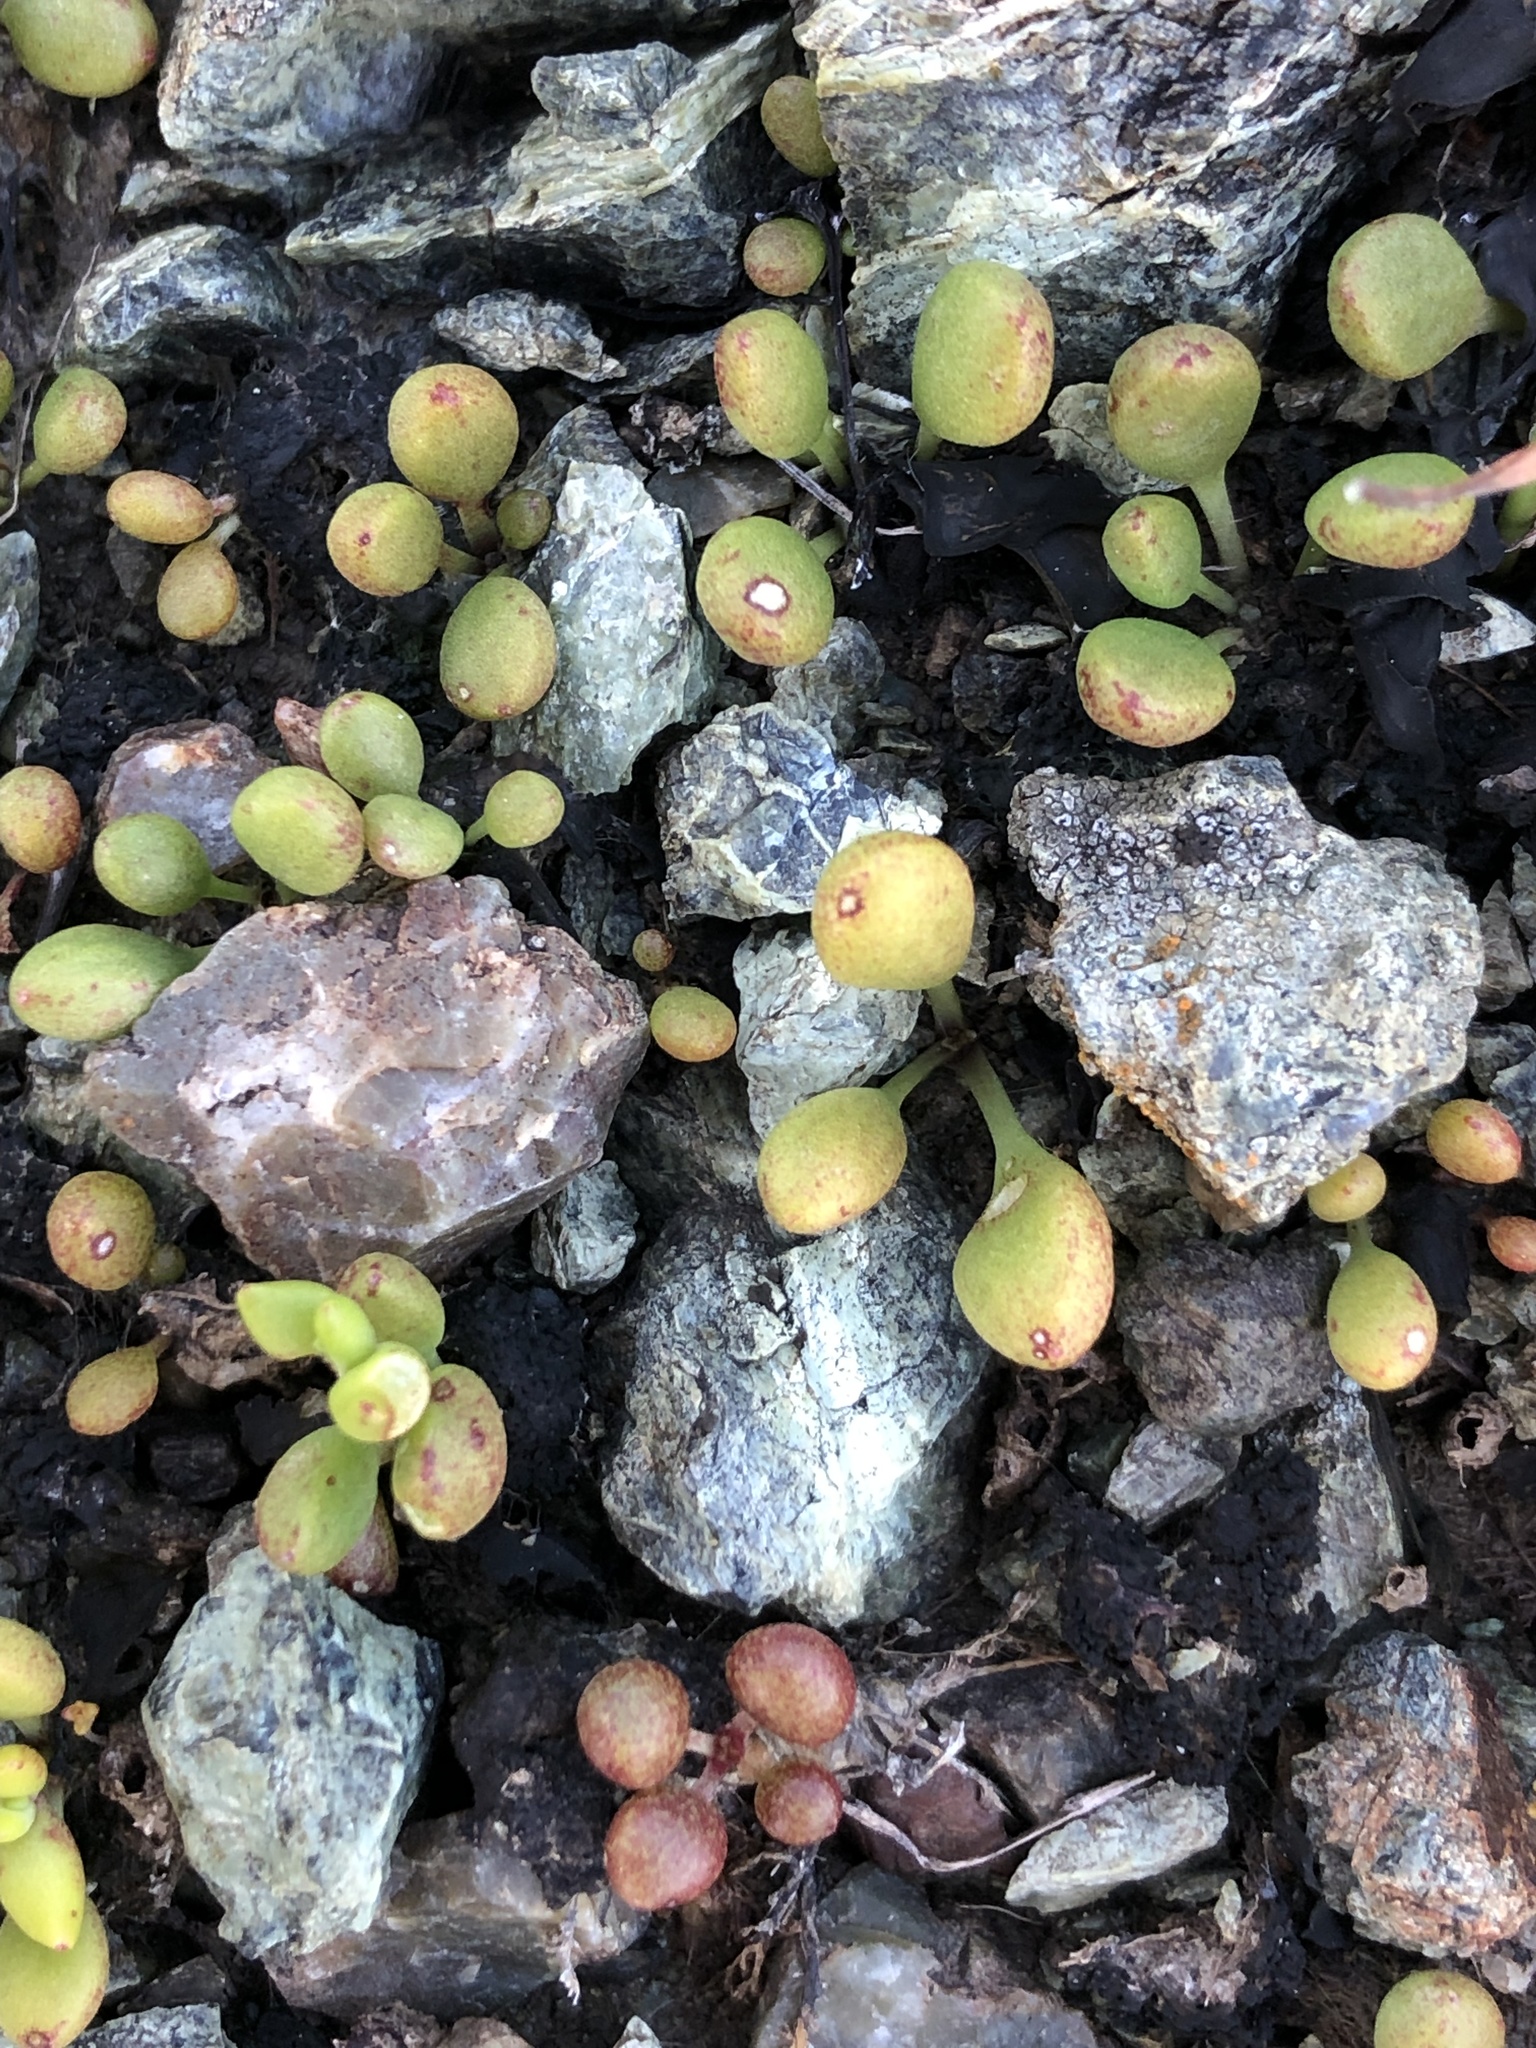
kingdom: Plantae
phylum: Tracheophyta
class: Magnoliopsida
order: Saxifragales
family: Crassulaceae
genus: Dudleya
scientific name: Dudleya blochmaniae
